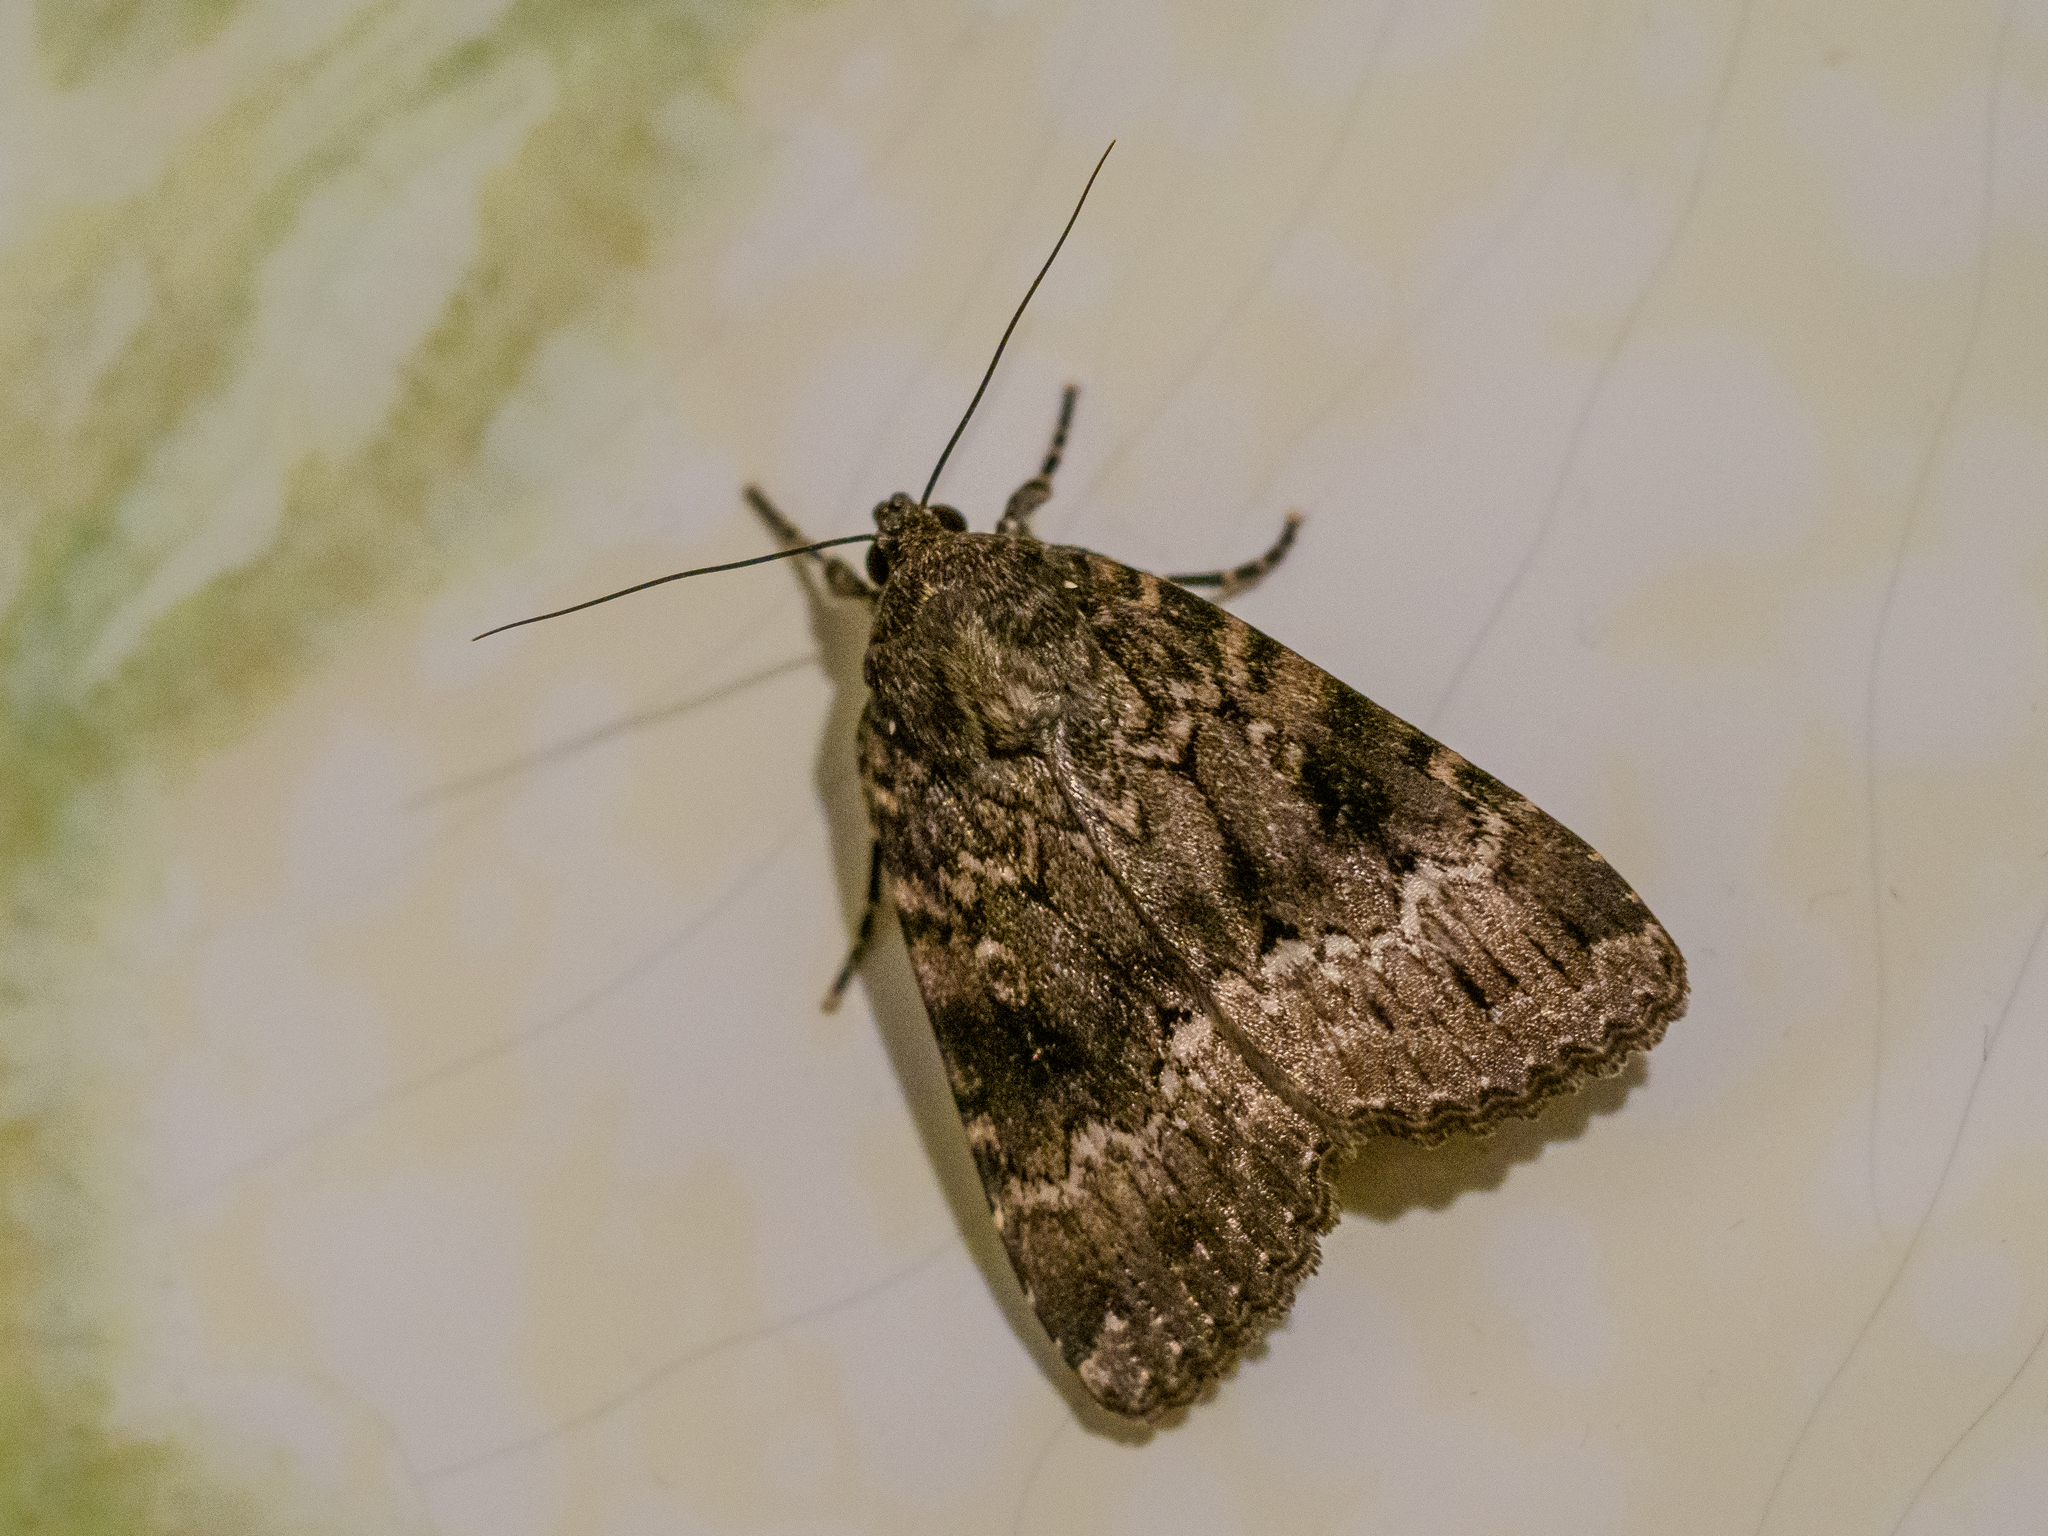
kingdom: Animalia
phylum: Arthropoda
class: Insecta
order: Lepidoptera
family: Noctuidae
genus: Amphipyra
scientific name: Amphipyra berbera
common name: Svensson's copper underwing
